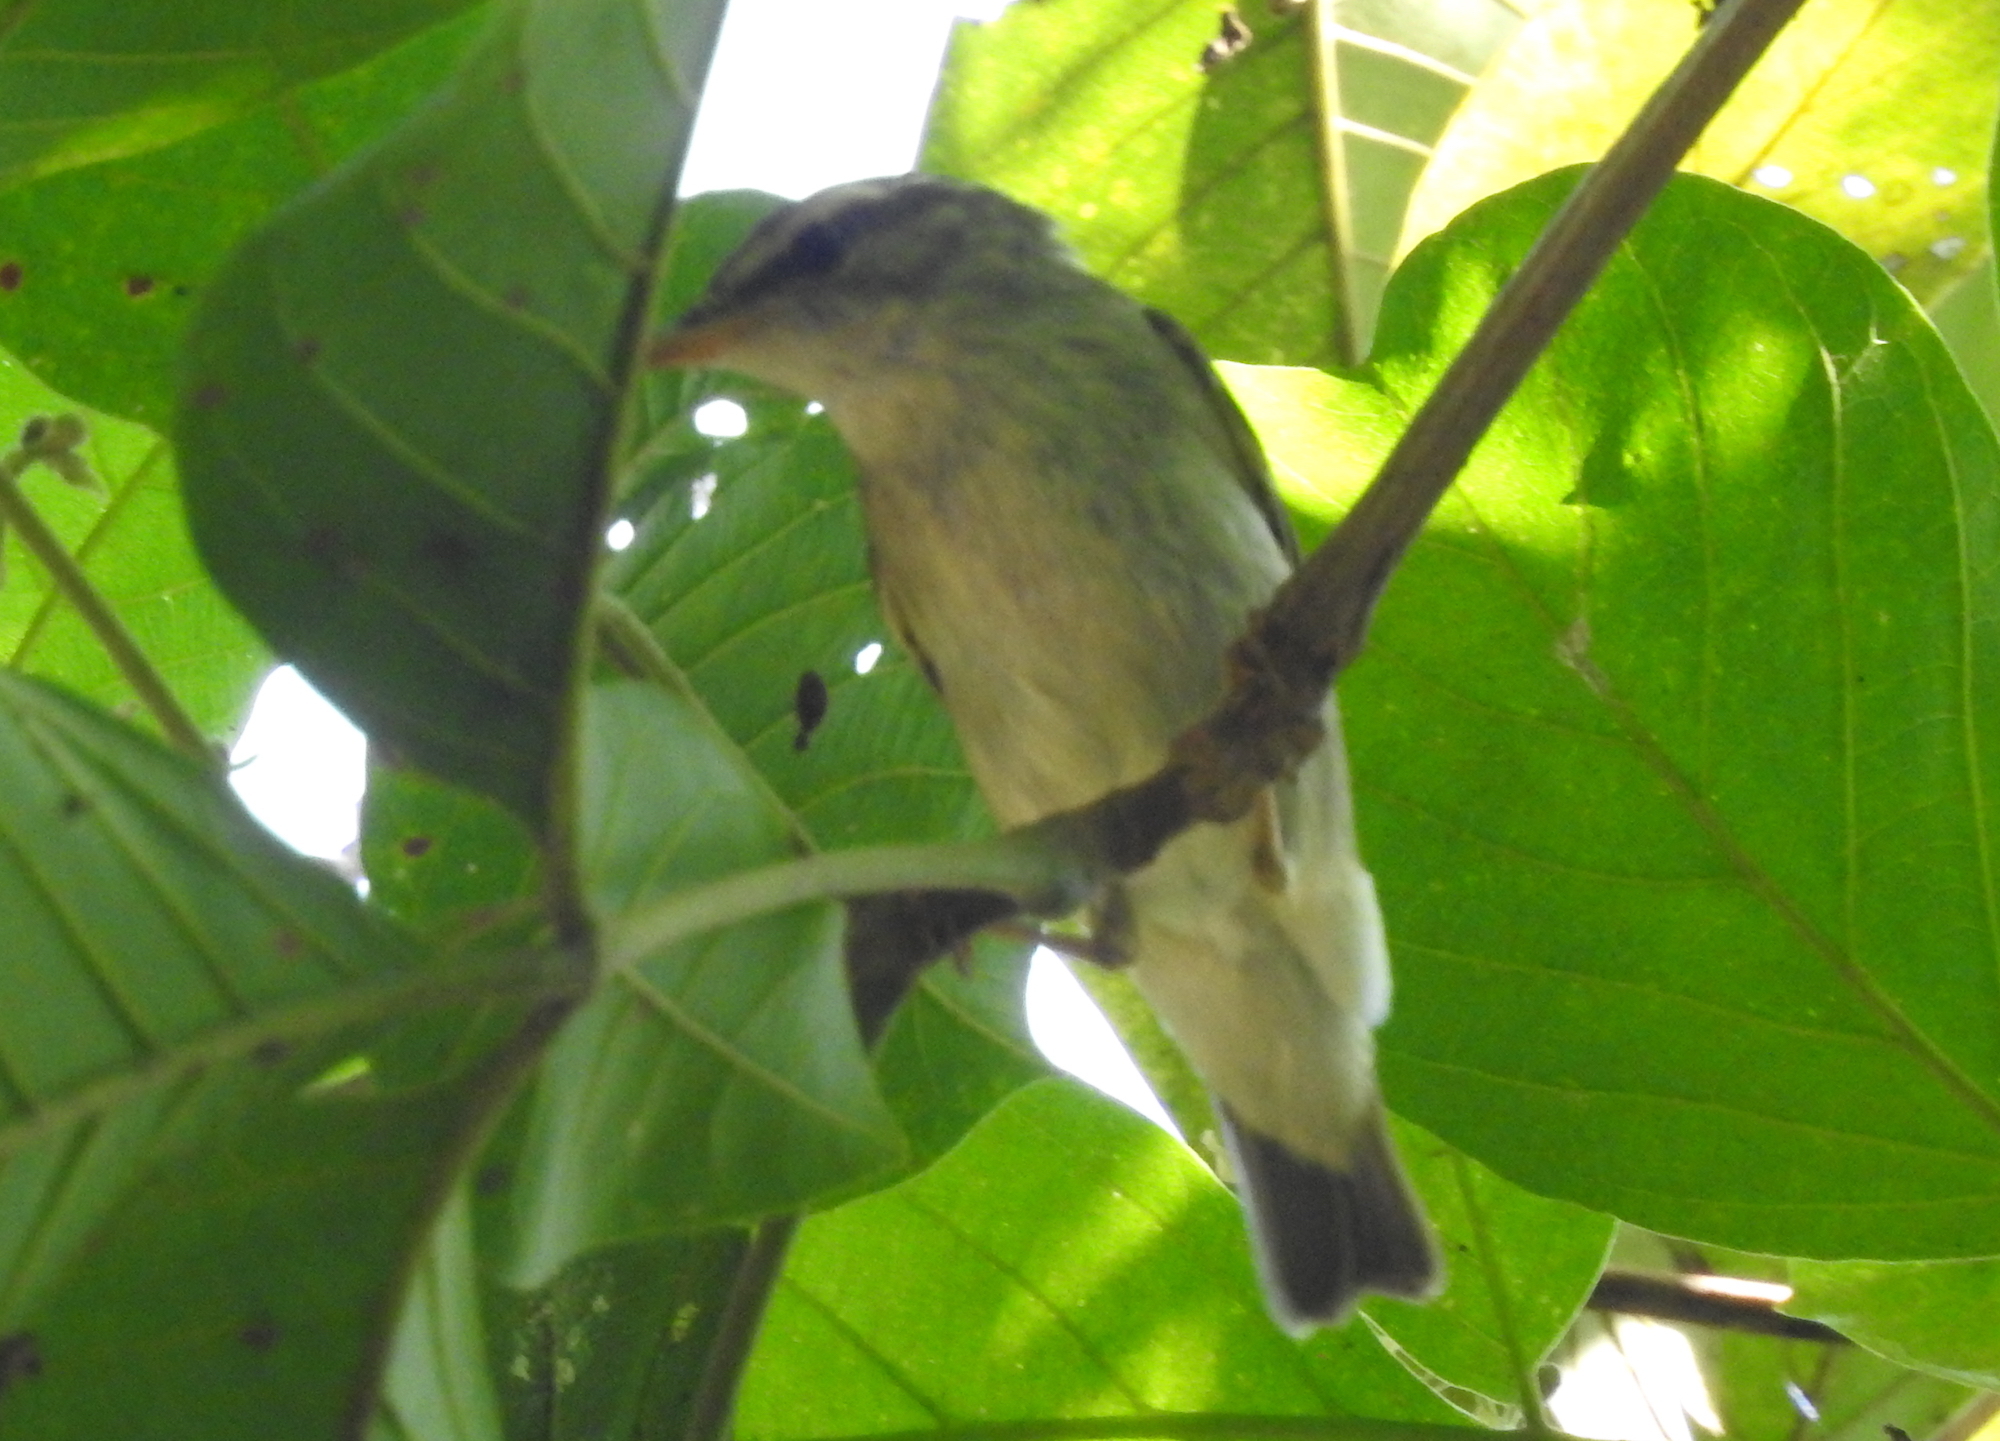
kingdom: Animalia
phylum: Chordata
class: Aves
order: Passeriformes
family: Phylloscopidae
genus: Phylloscopus
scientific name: Phylloscopus borealis
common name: Arctic warbler
